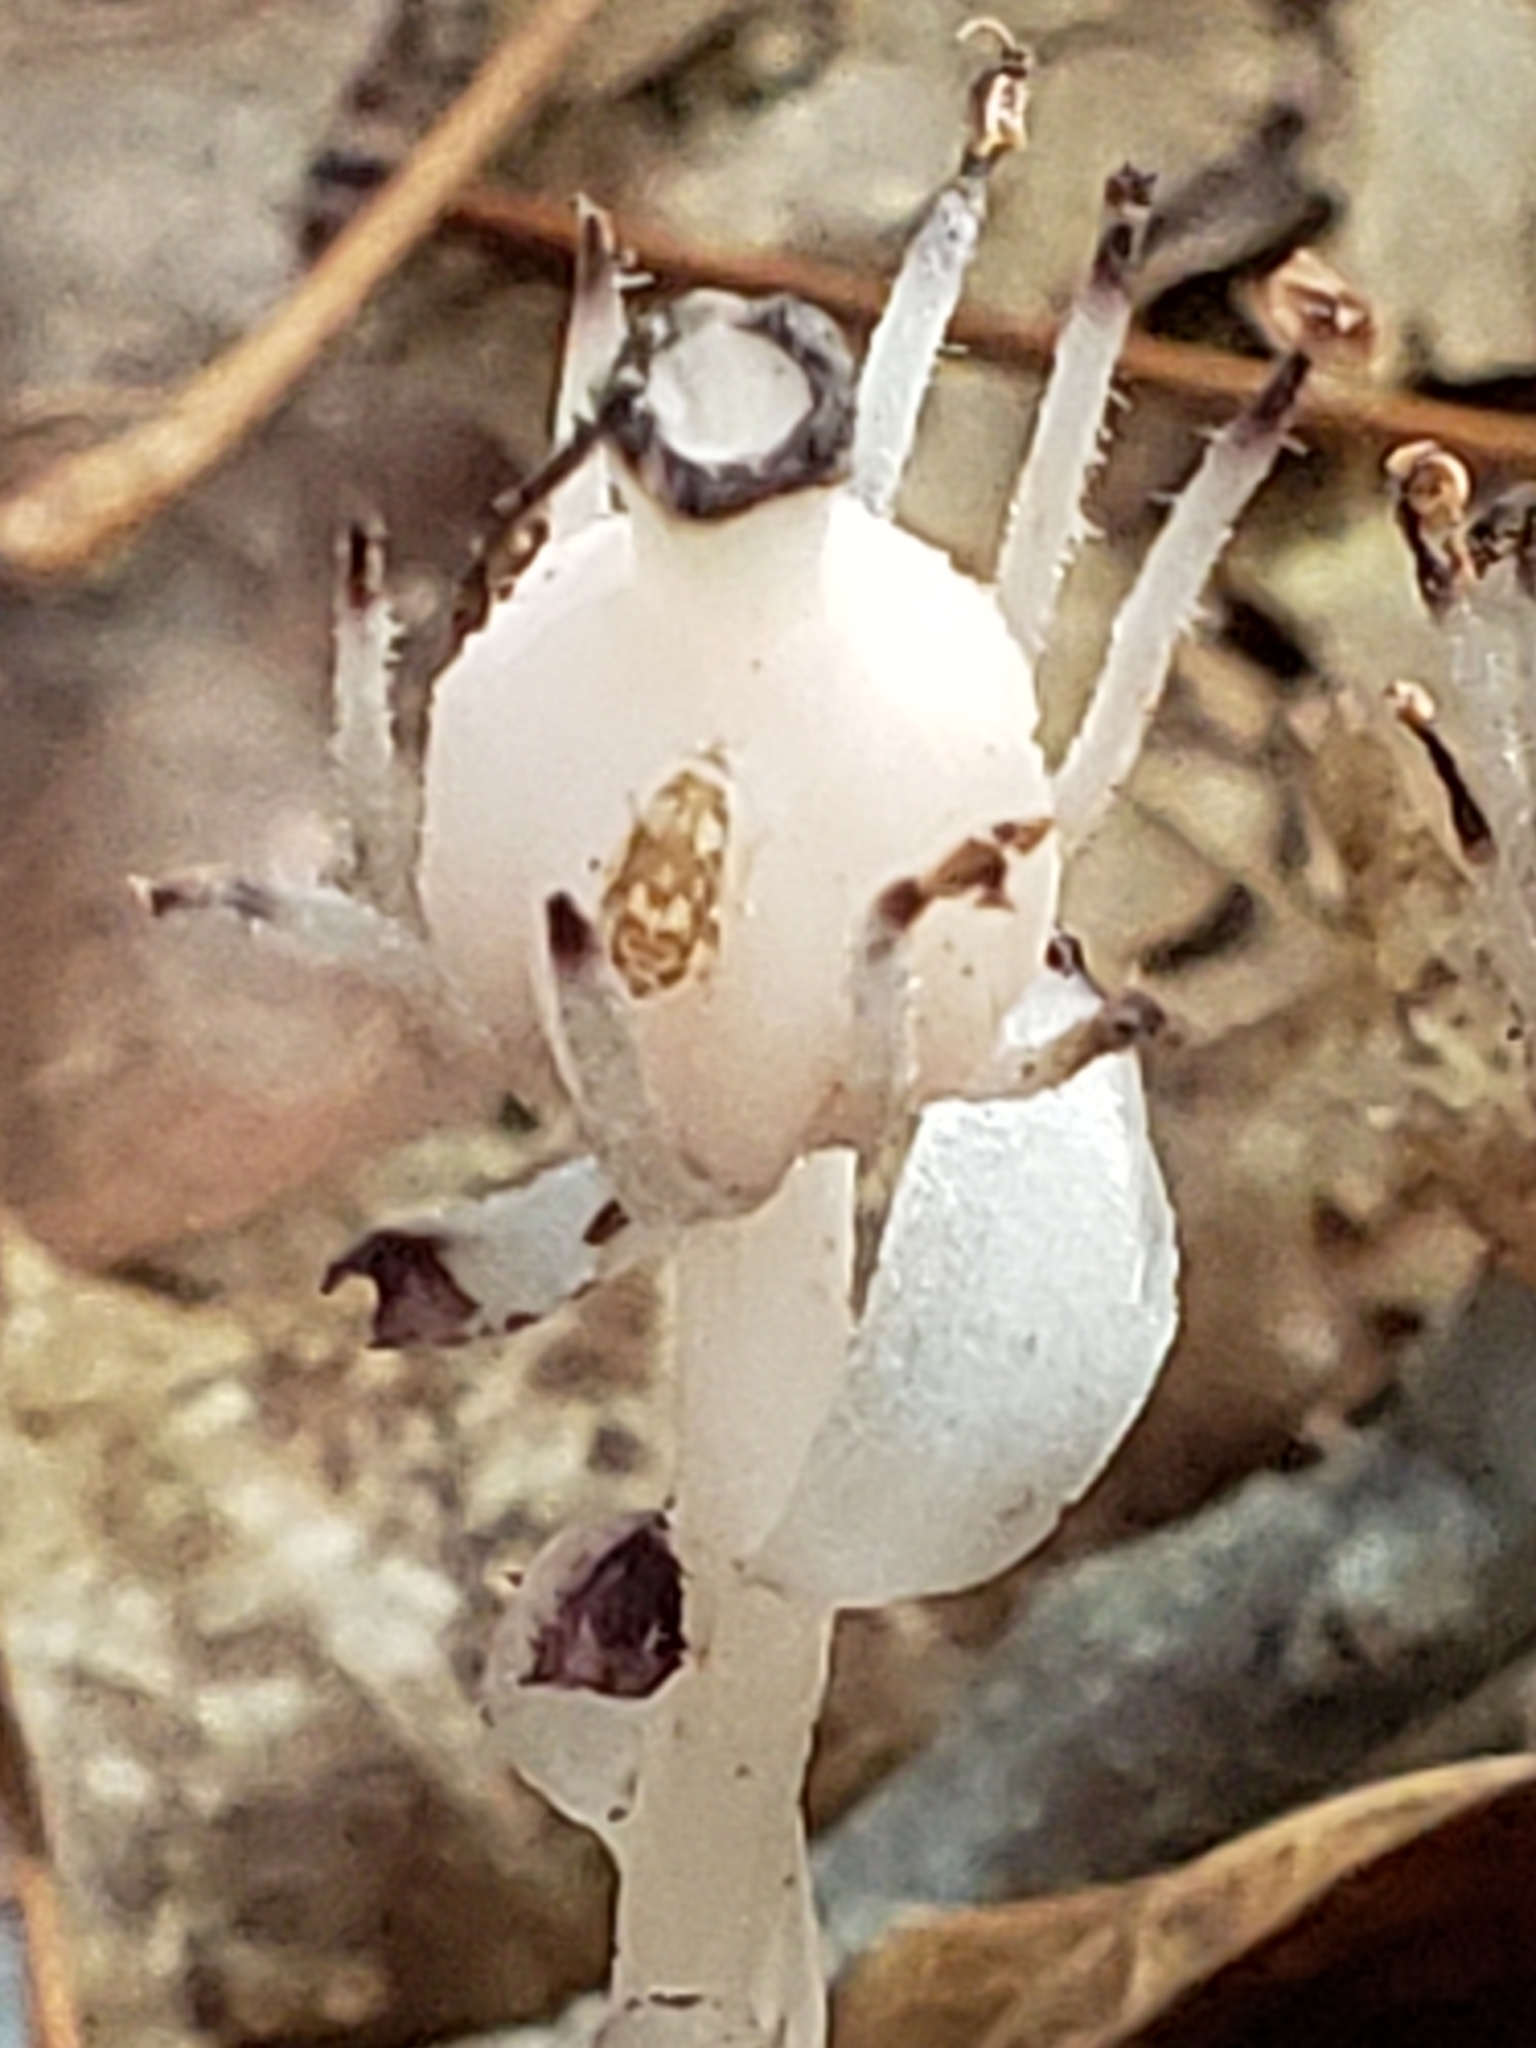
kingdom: Plantae
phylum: Tracheophyta
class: Magnoliopsida
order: Ericales
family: Ericaceae
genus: Monotropa
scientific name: Monotropa uniflora
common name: Convulsion root
